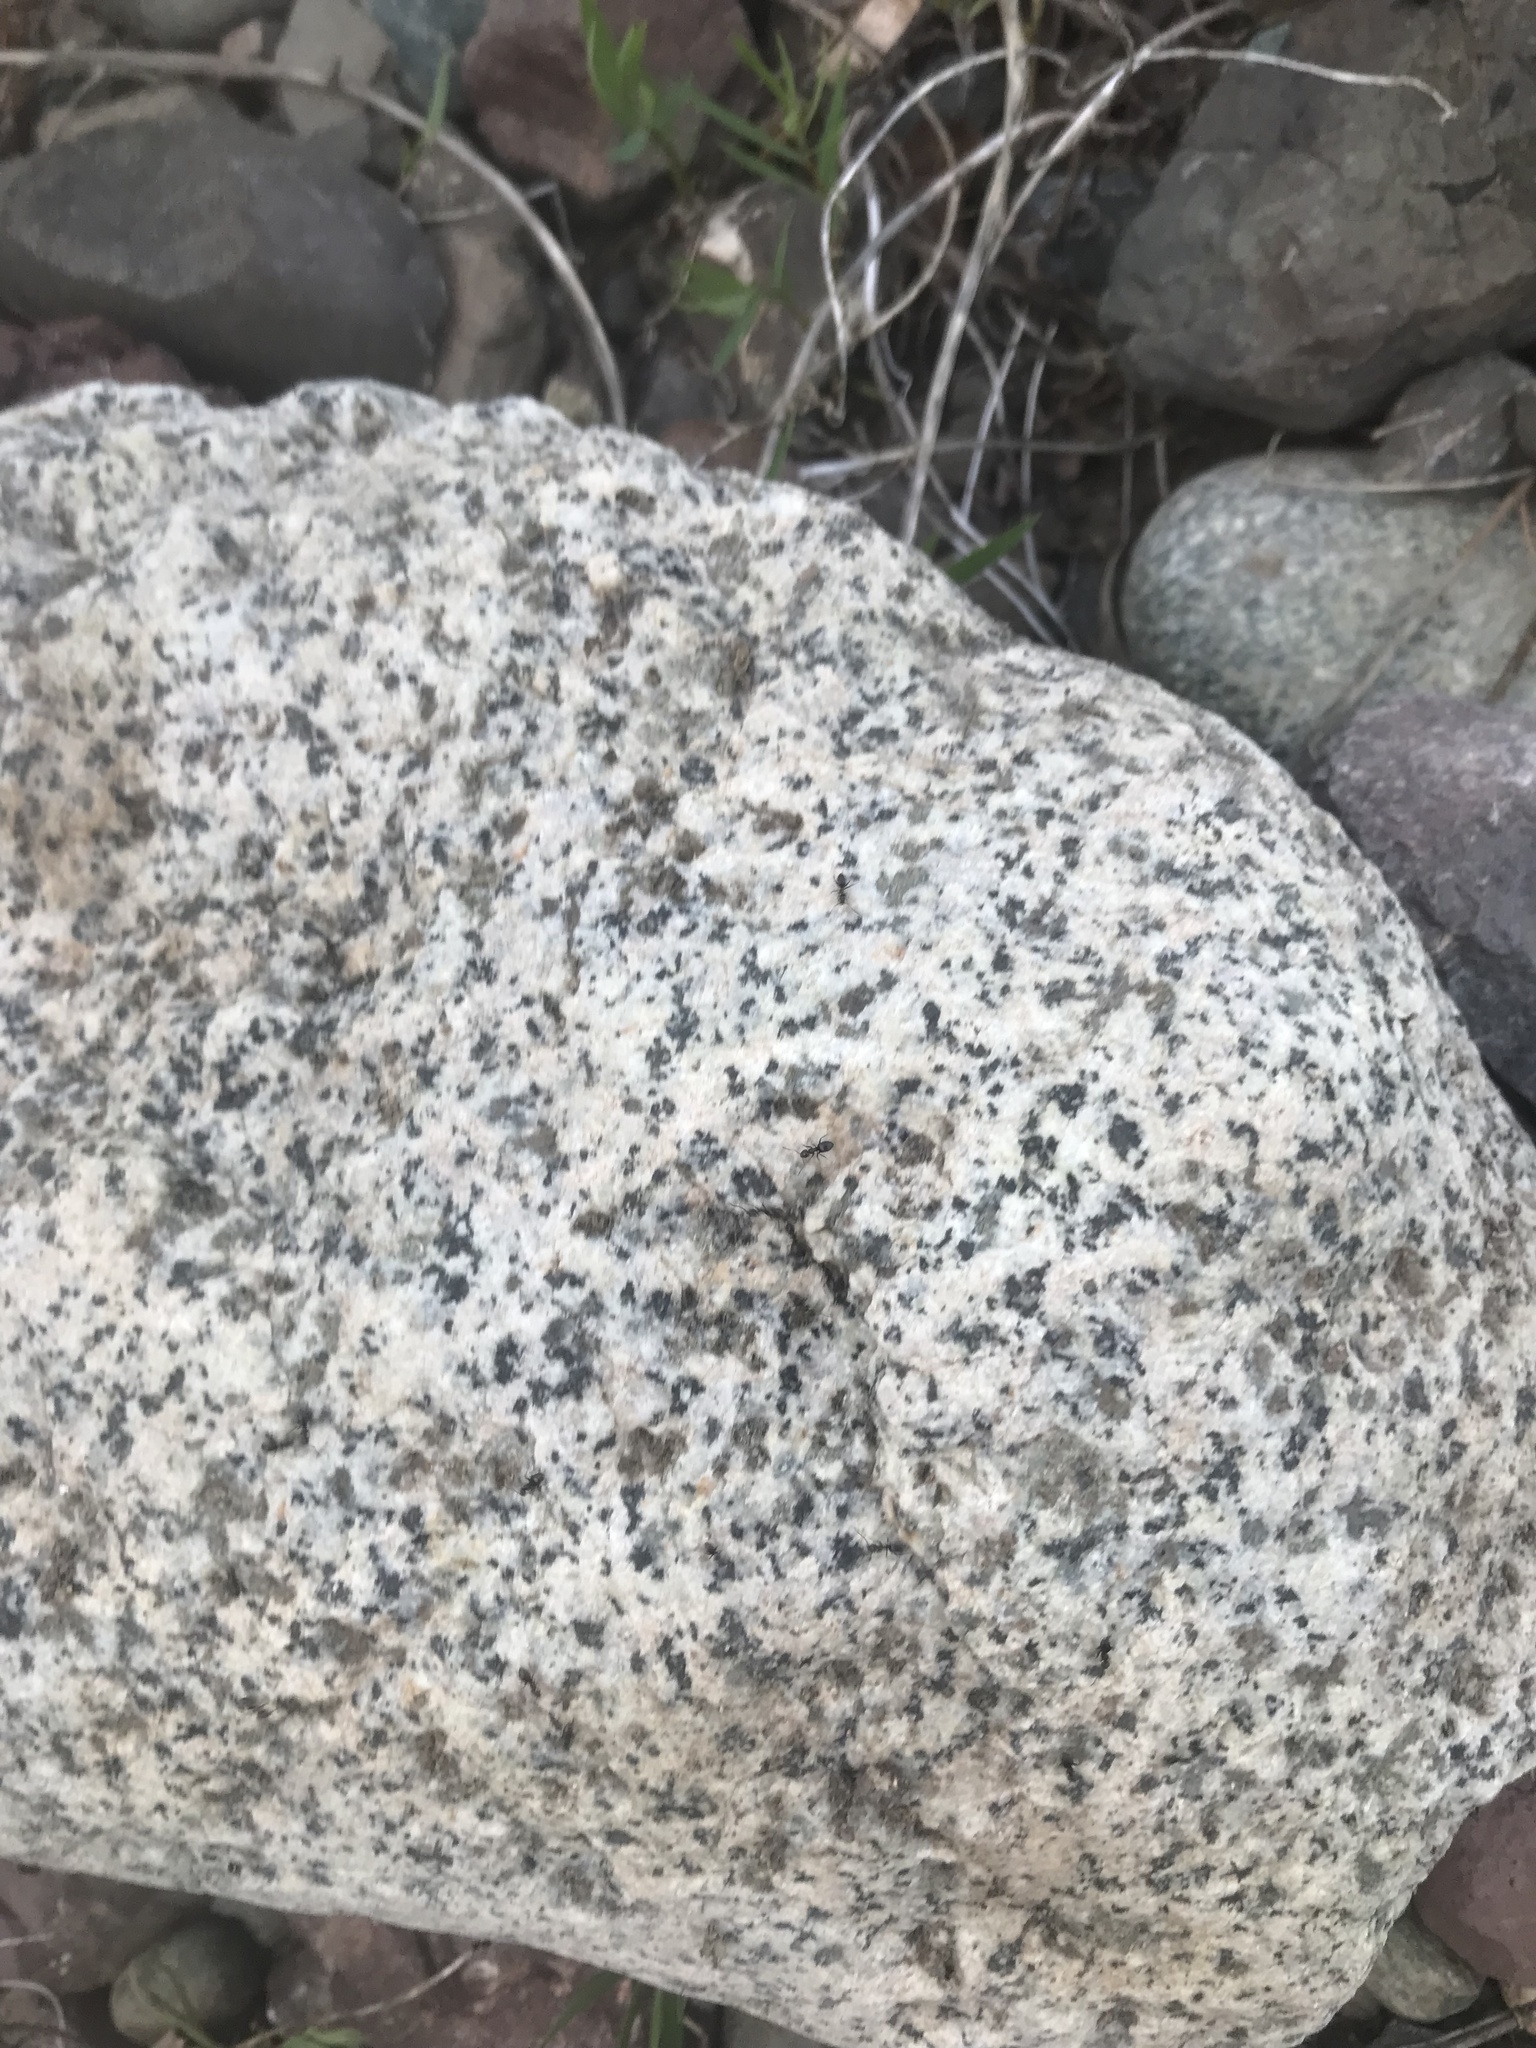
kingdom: Animalia
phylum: Arthropoda
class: Insecta
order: Hymenoptera
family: Formicidae
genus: Tapinoma
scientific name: Tapinoma sessile
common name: Odorous house ant
